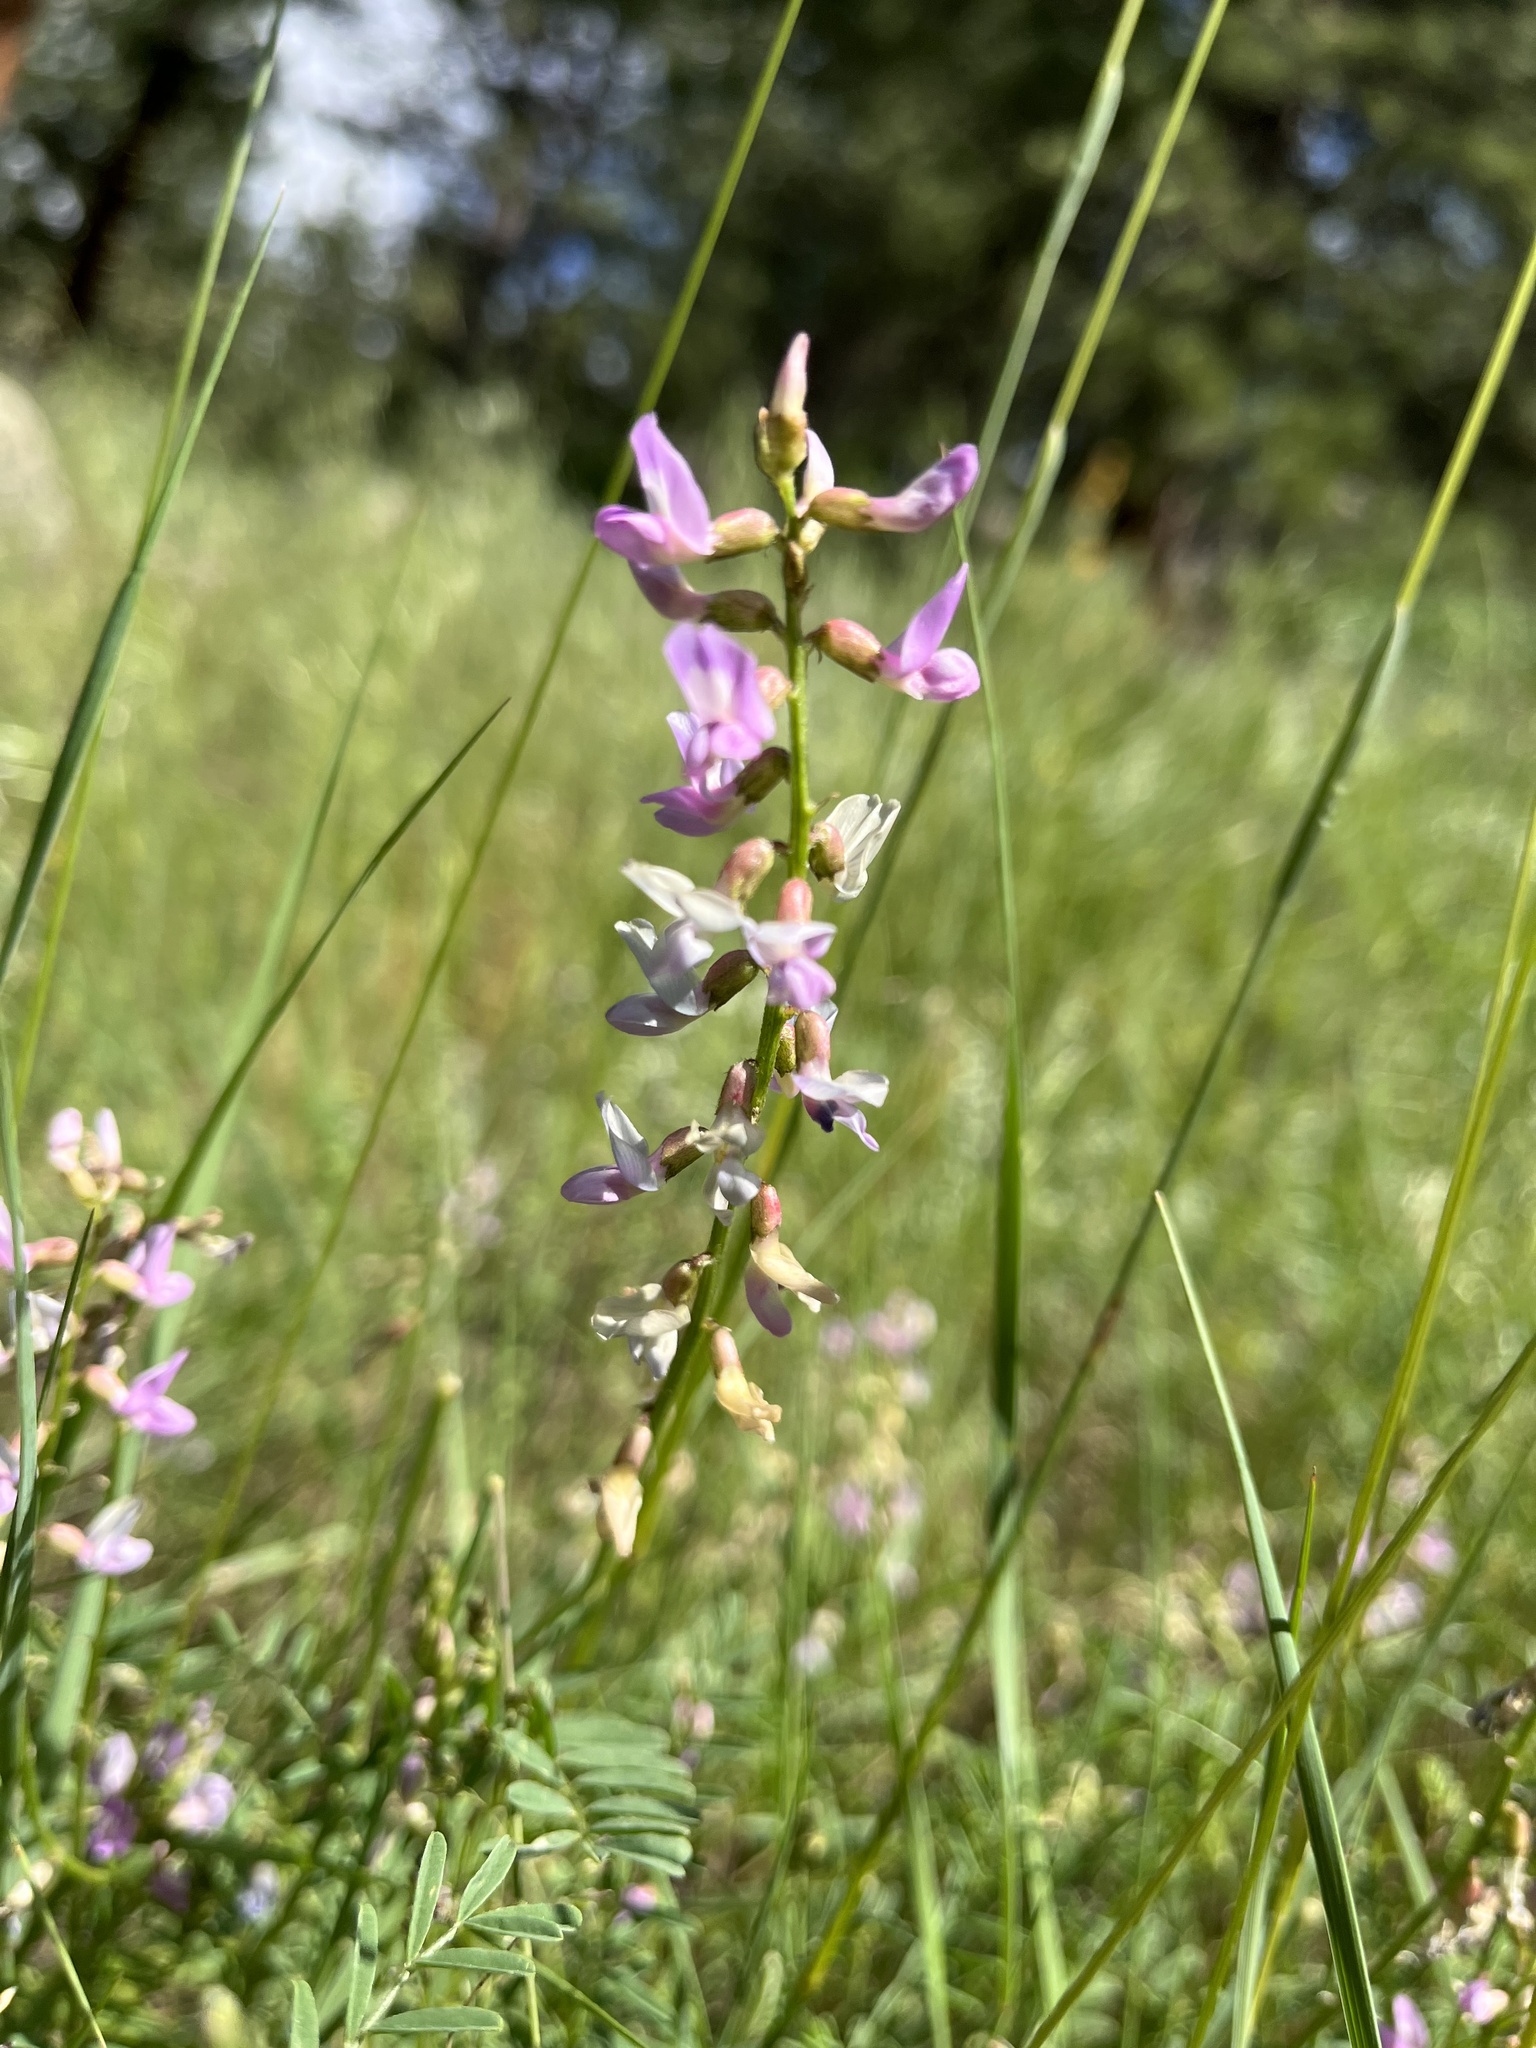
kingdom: Plantae
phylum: Tracheophyta
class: Magnoliopsida
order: Fabales
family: Fabaceae
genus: Astragalus
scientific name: Astragalus flexuosus
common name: Pliant milk-vetch
